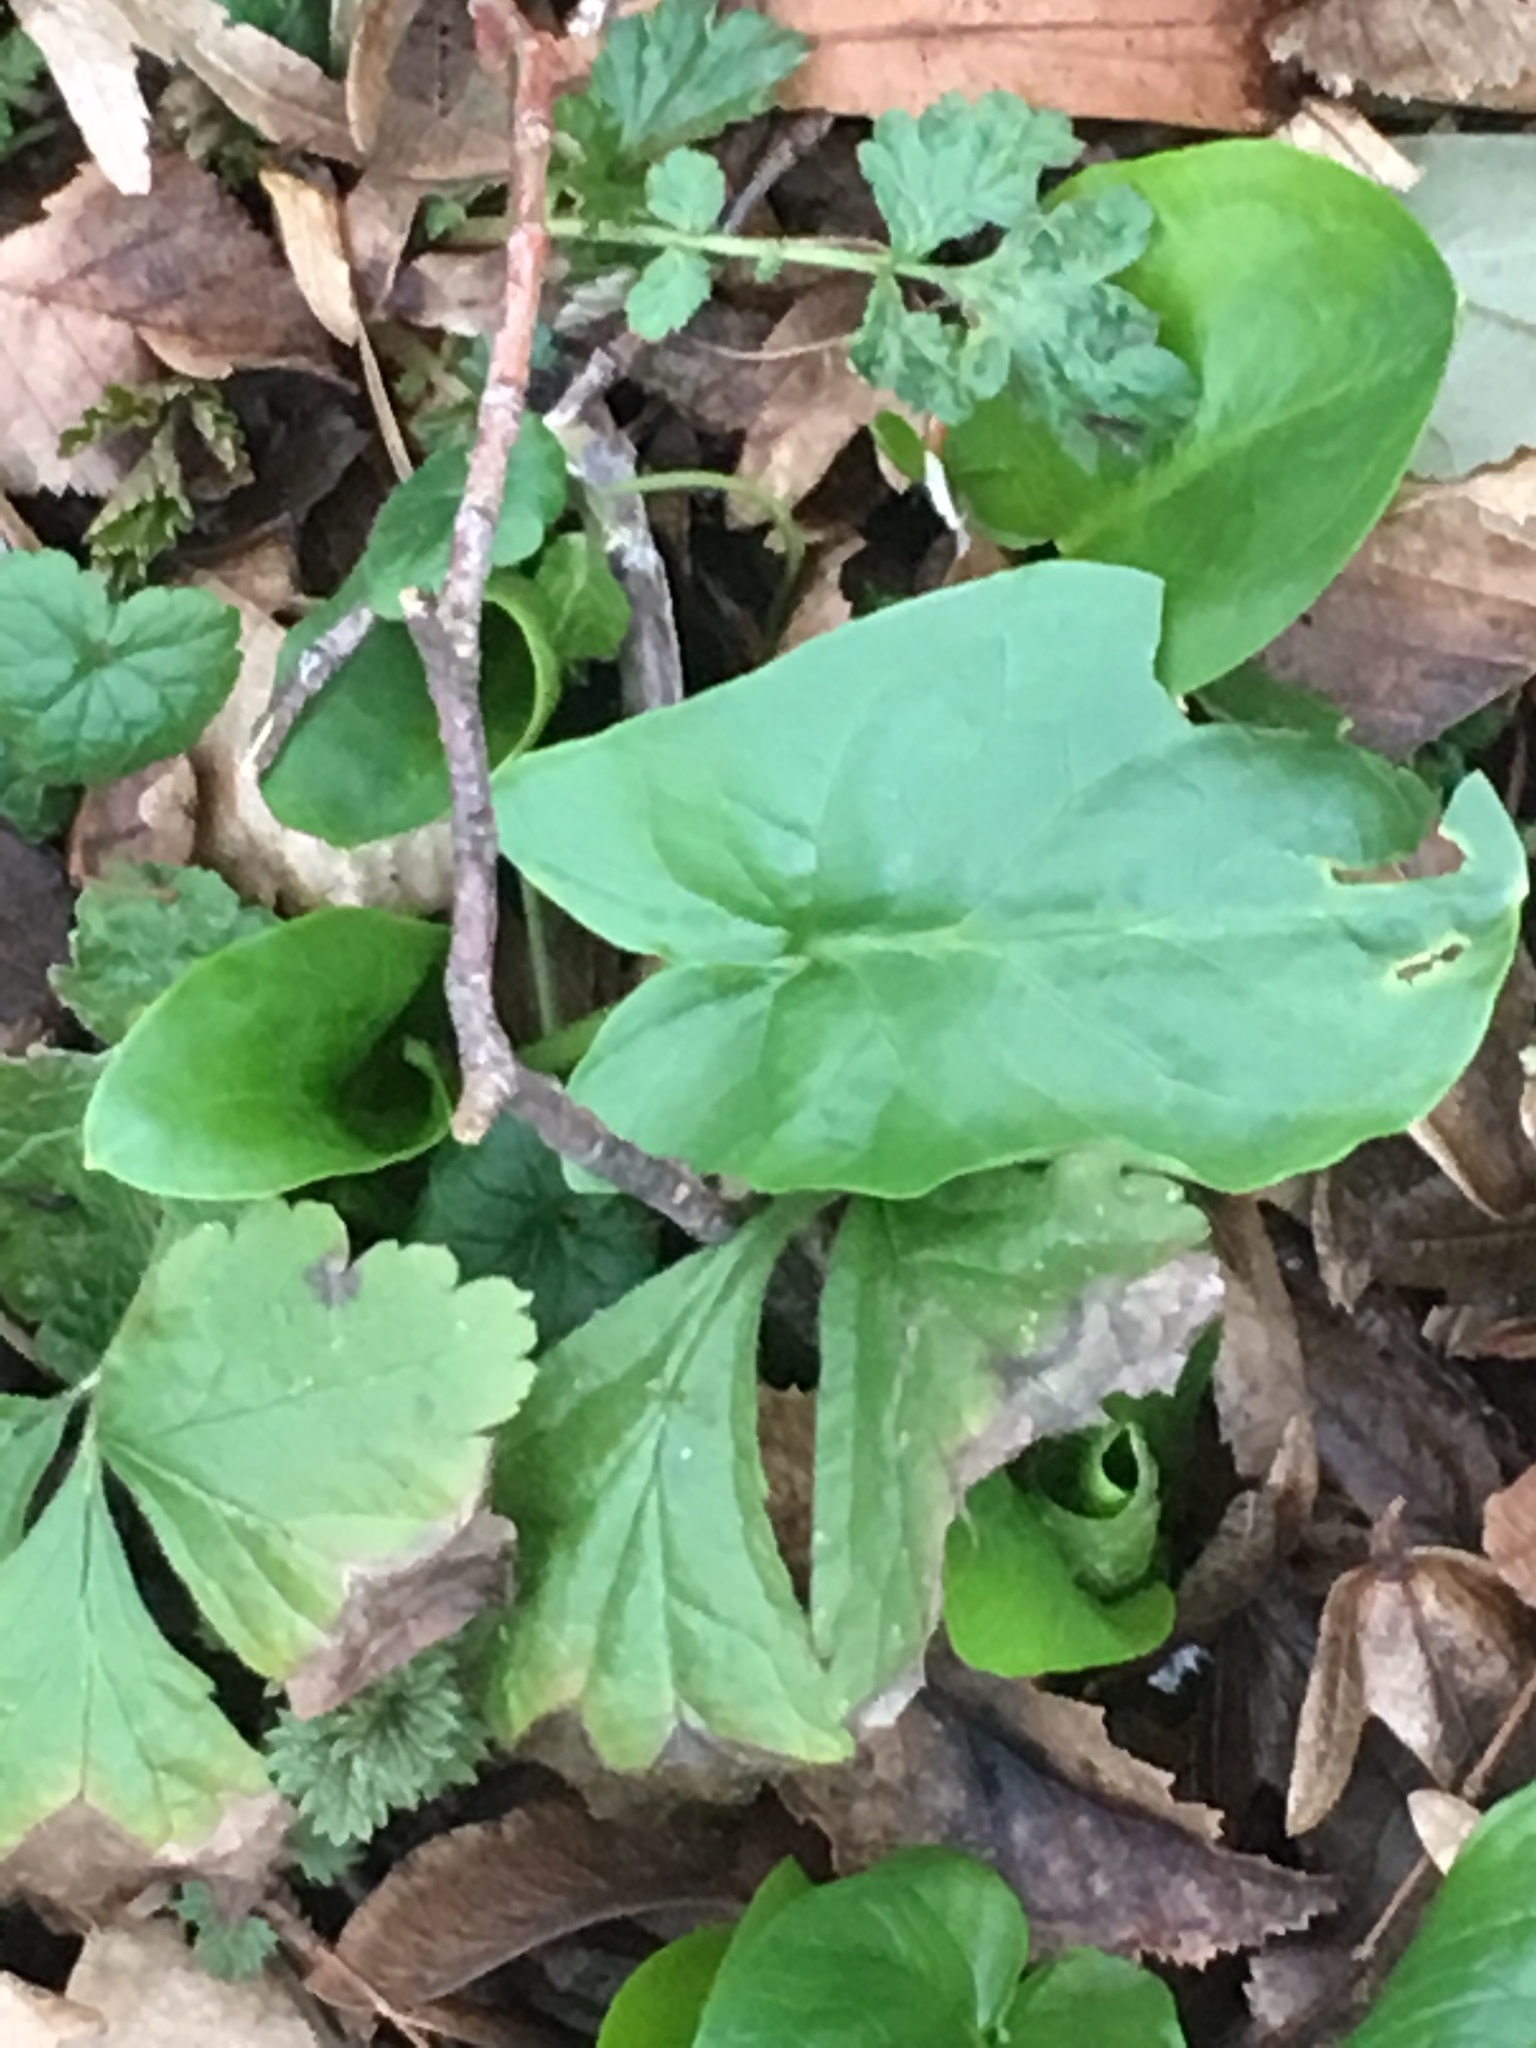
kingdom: Plantae
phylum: Tracheophyta
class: Liliopsida
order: Alismatales
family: Araceae
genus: Arum
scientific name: Arum maculatum
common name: Lords-and-ladies
